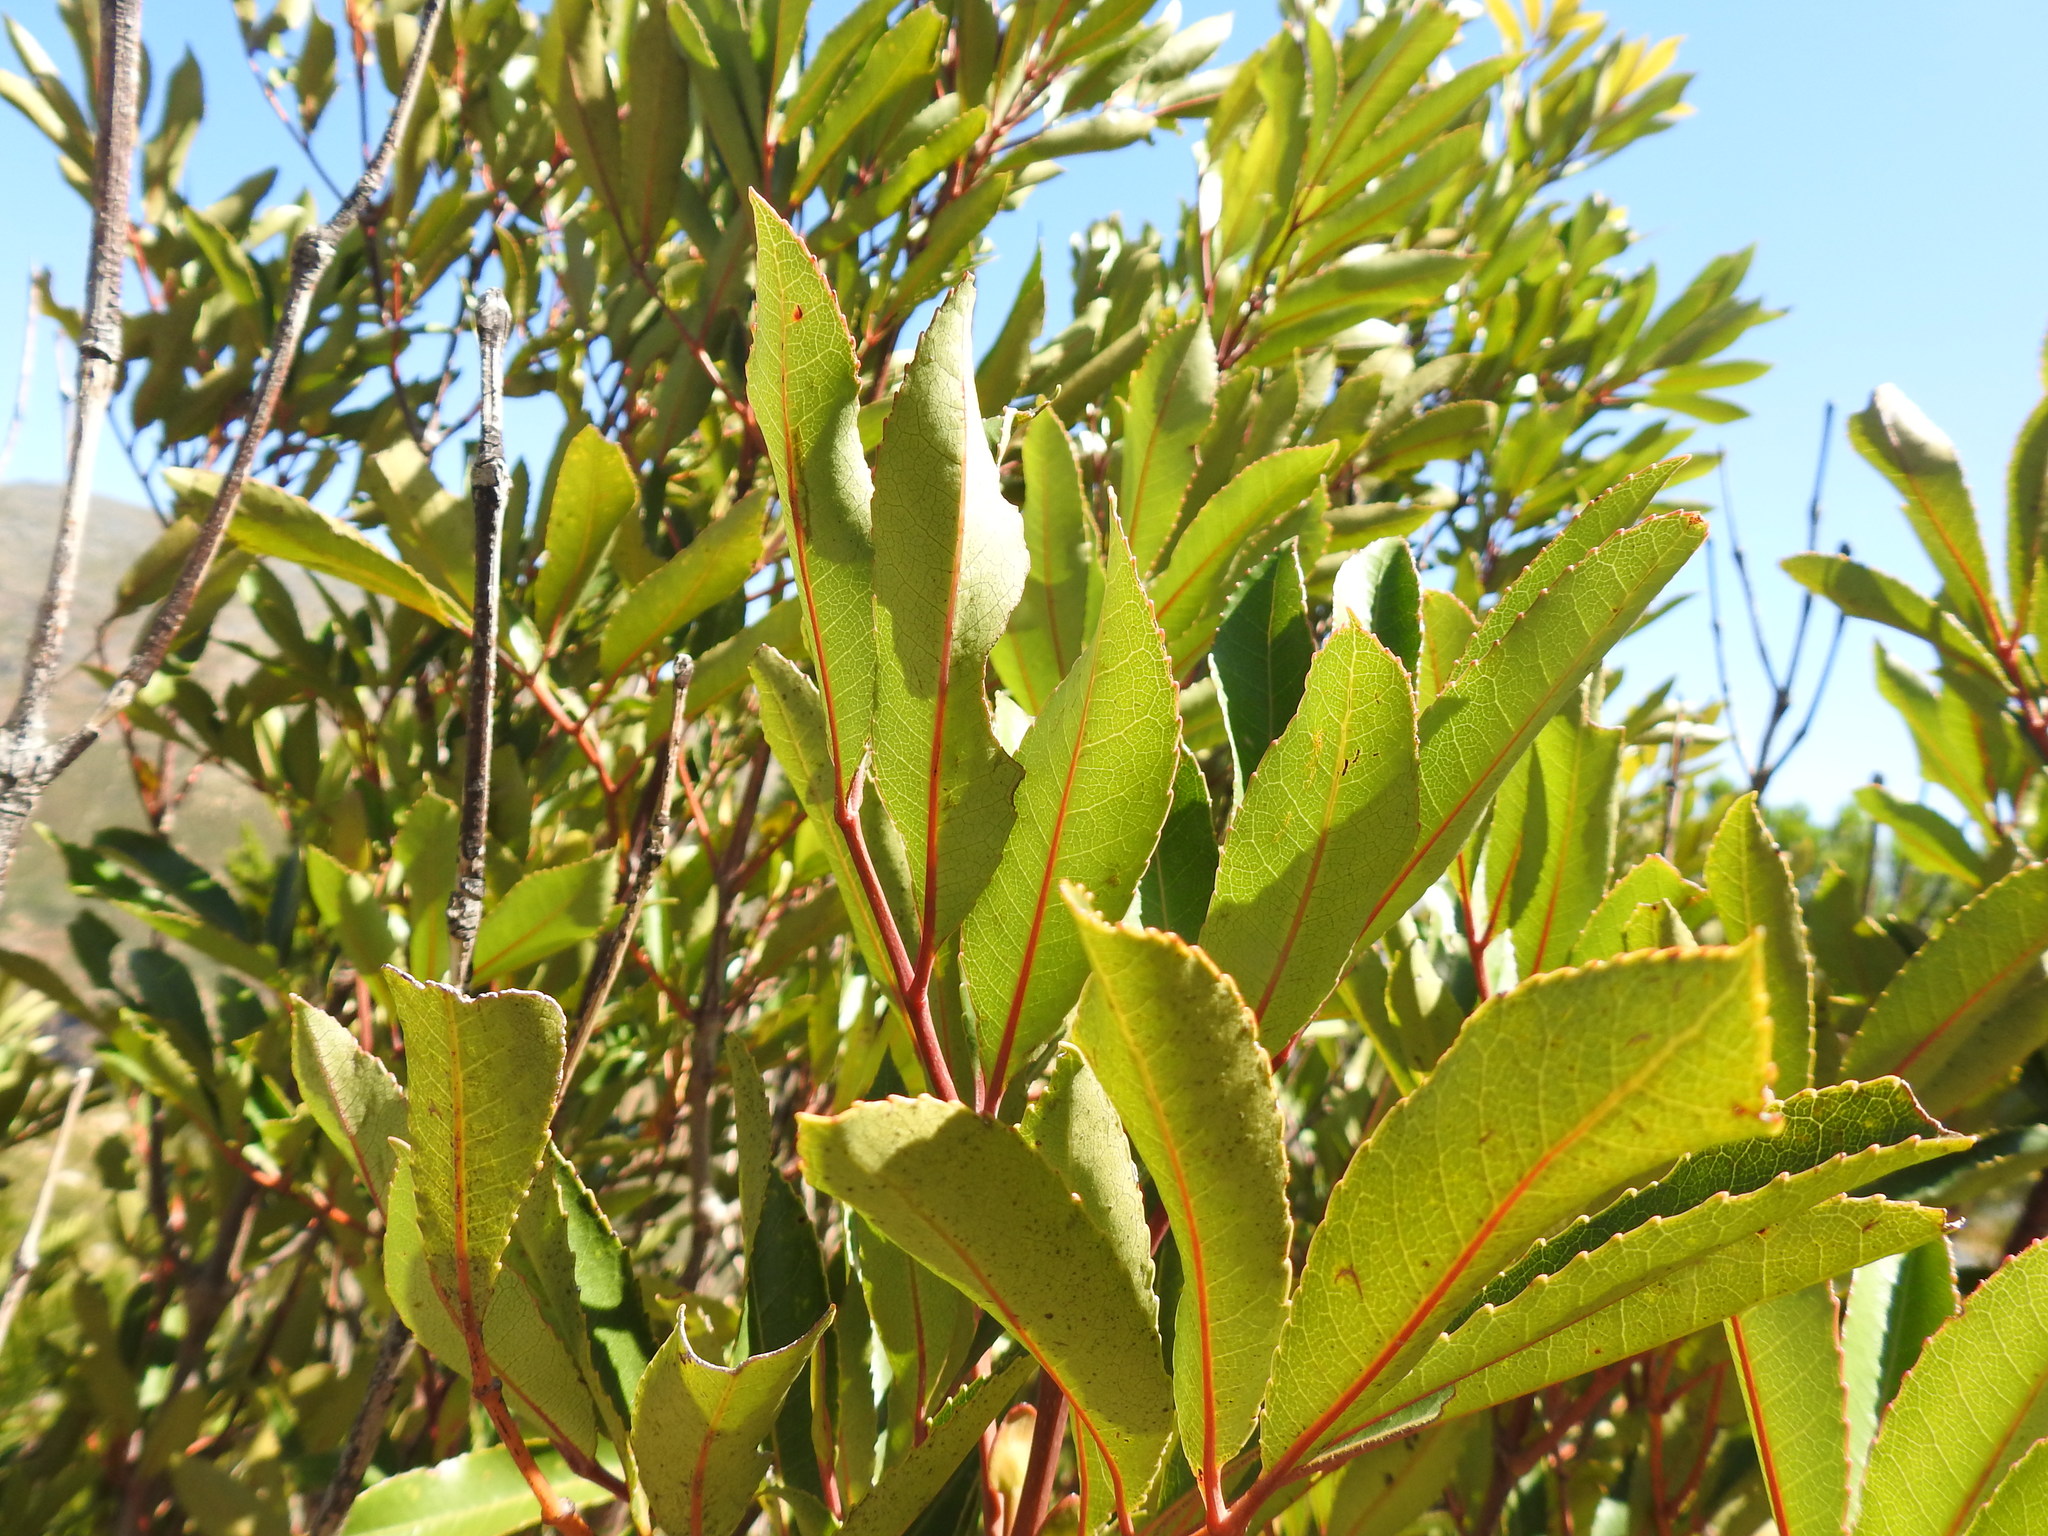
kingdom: Plantae
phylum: Tracheophyta
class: Magnoliopsida
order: Oxalidales
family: Cunoniaceae
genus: Cunonia
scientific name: Cunonia capensis
